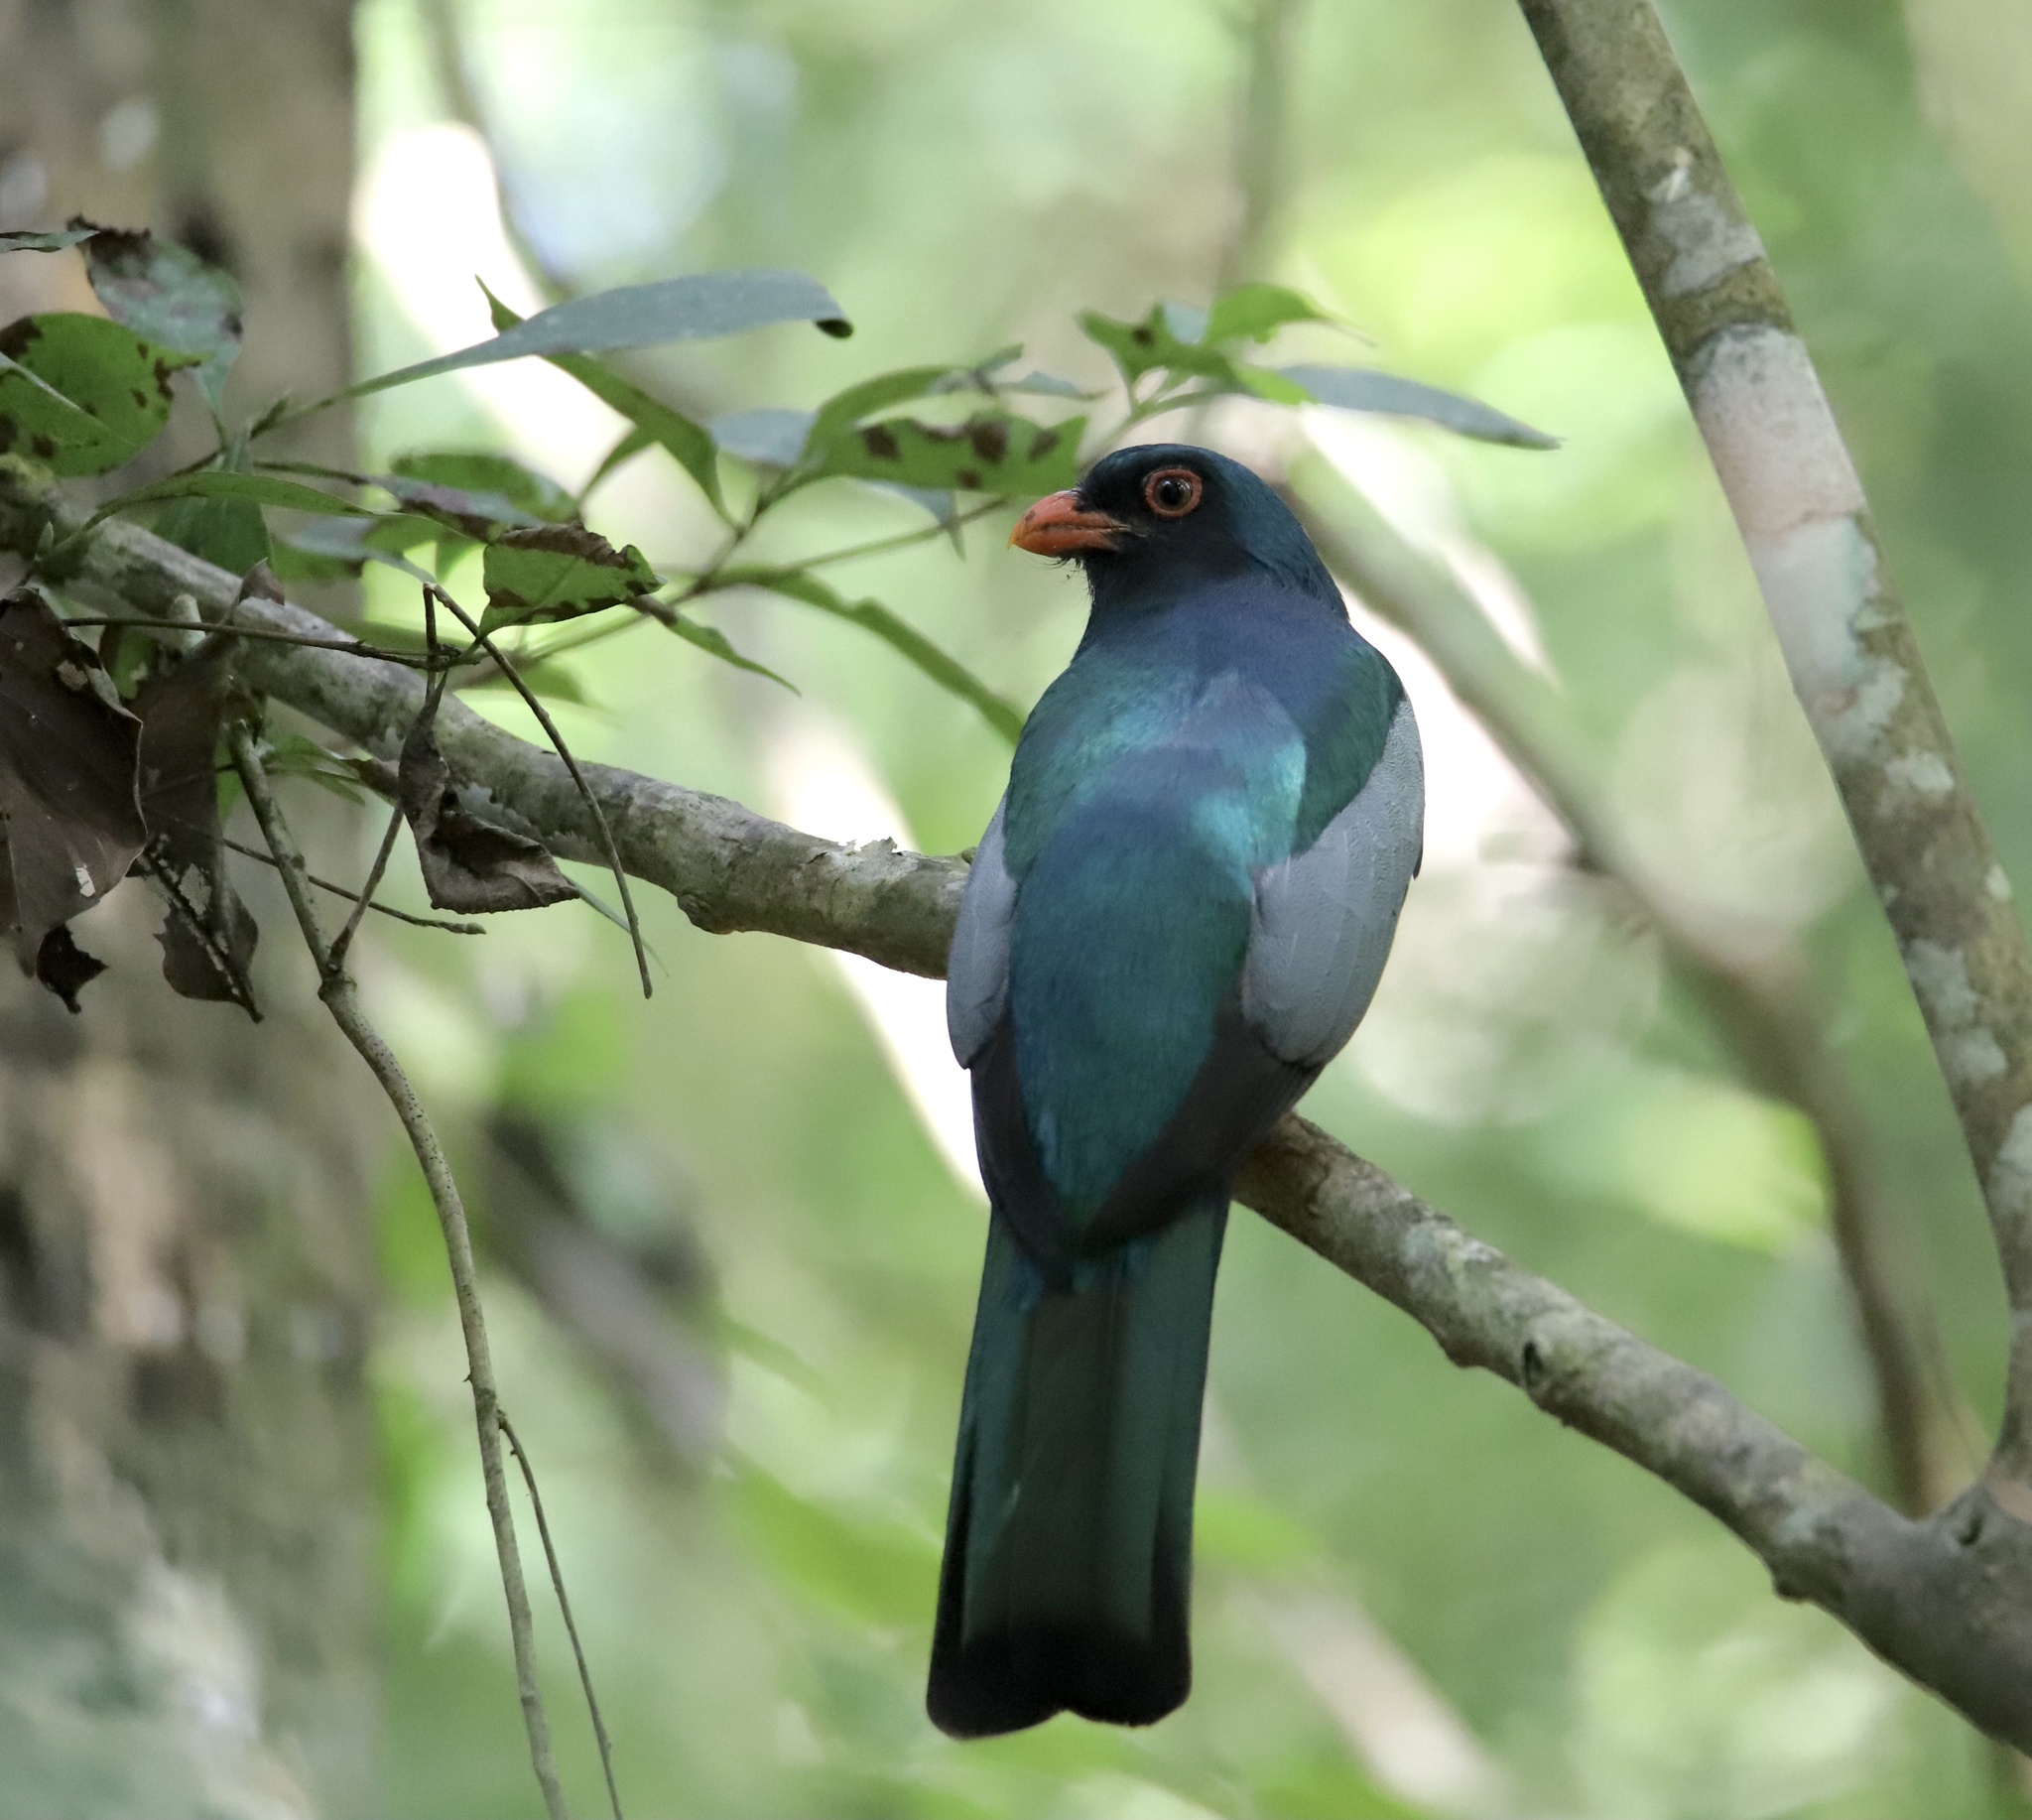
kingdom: Animalia
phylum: Chordata
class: Aves
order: Trogoniformes
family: Trogonidae
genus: Trogon
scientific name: Trogon massena
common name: Slaty-tailed trogon
